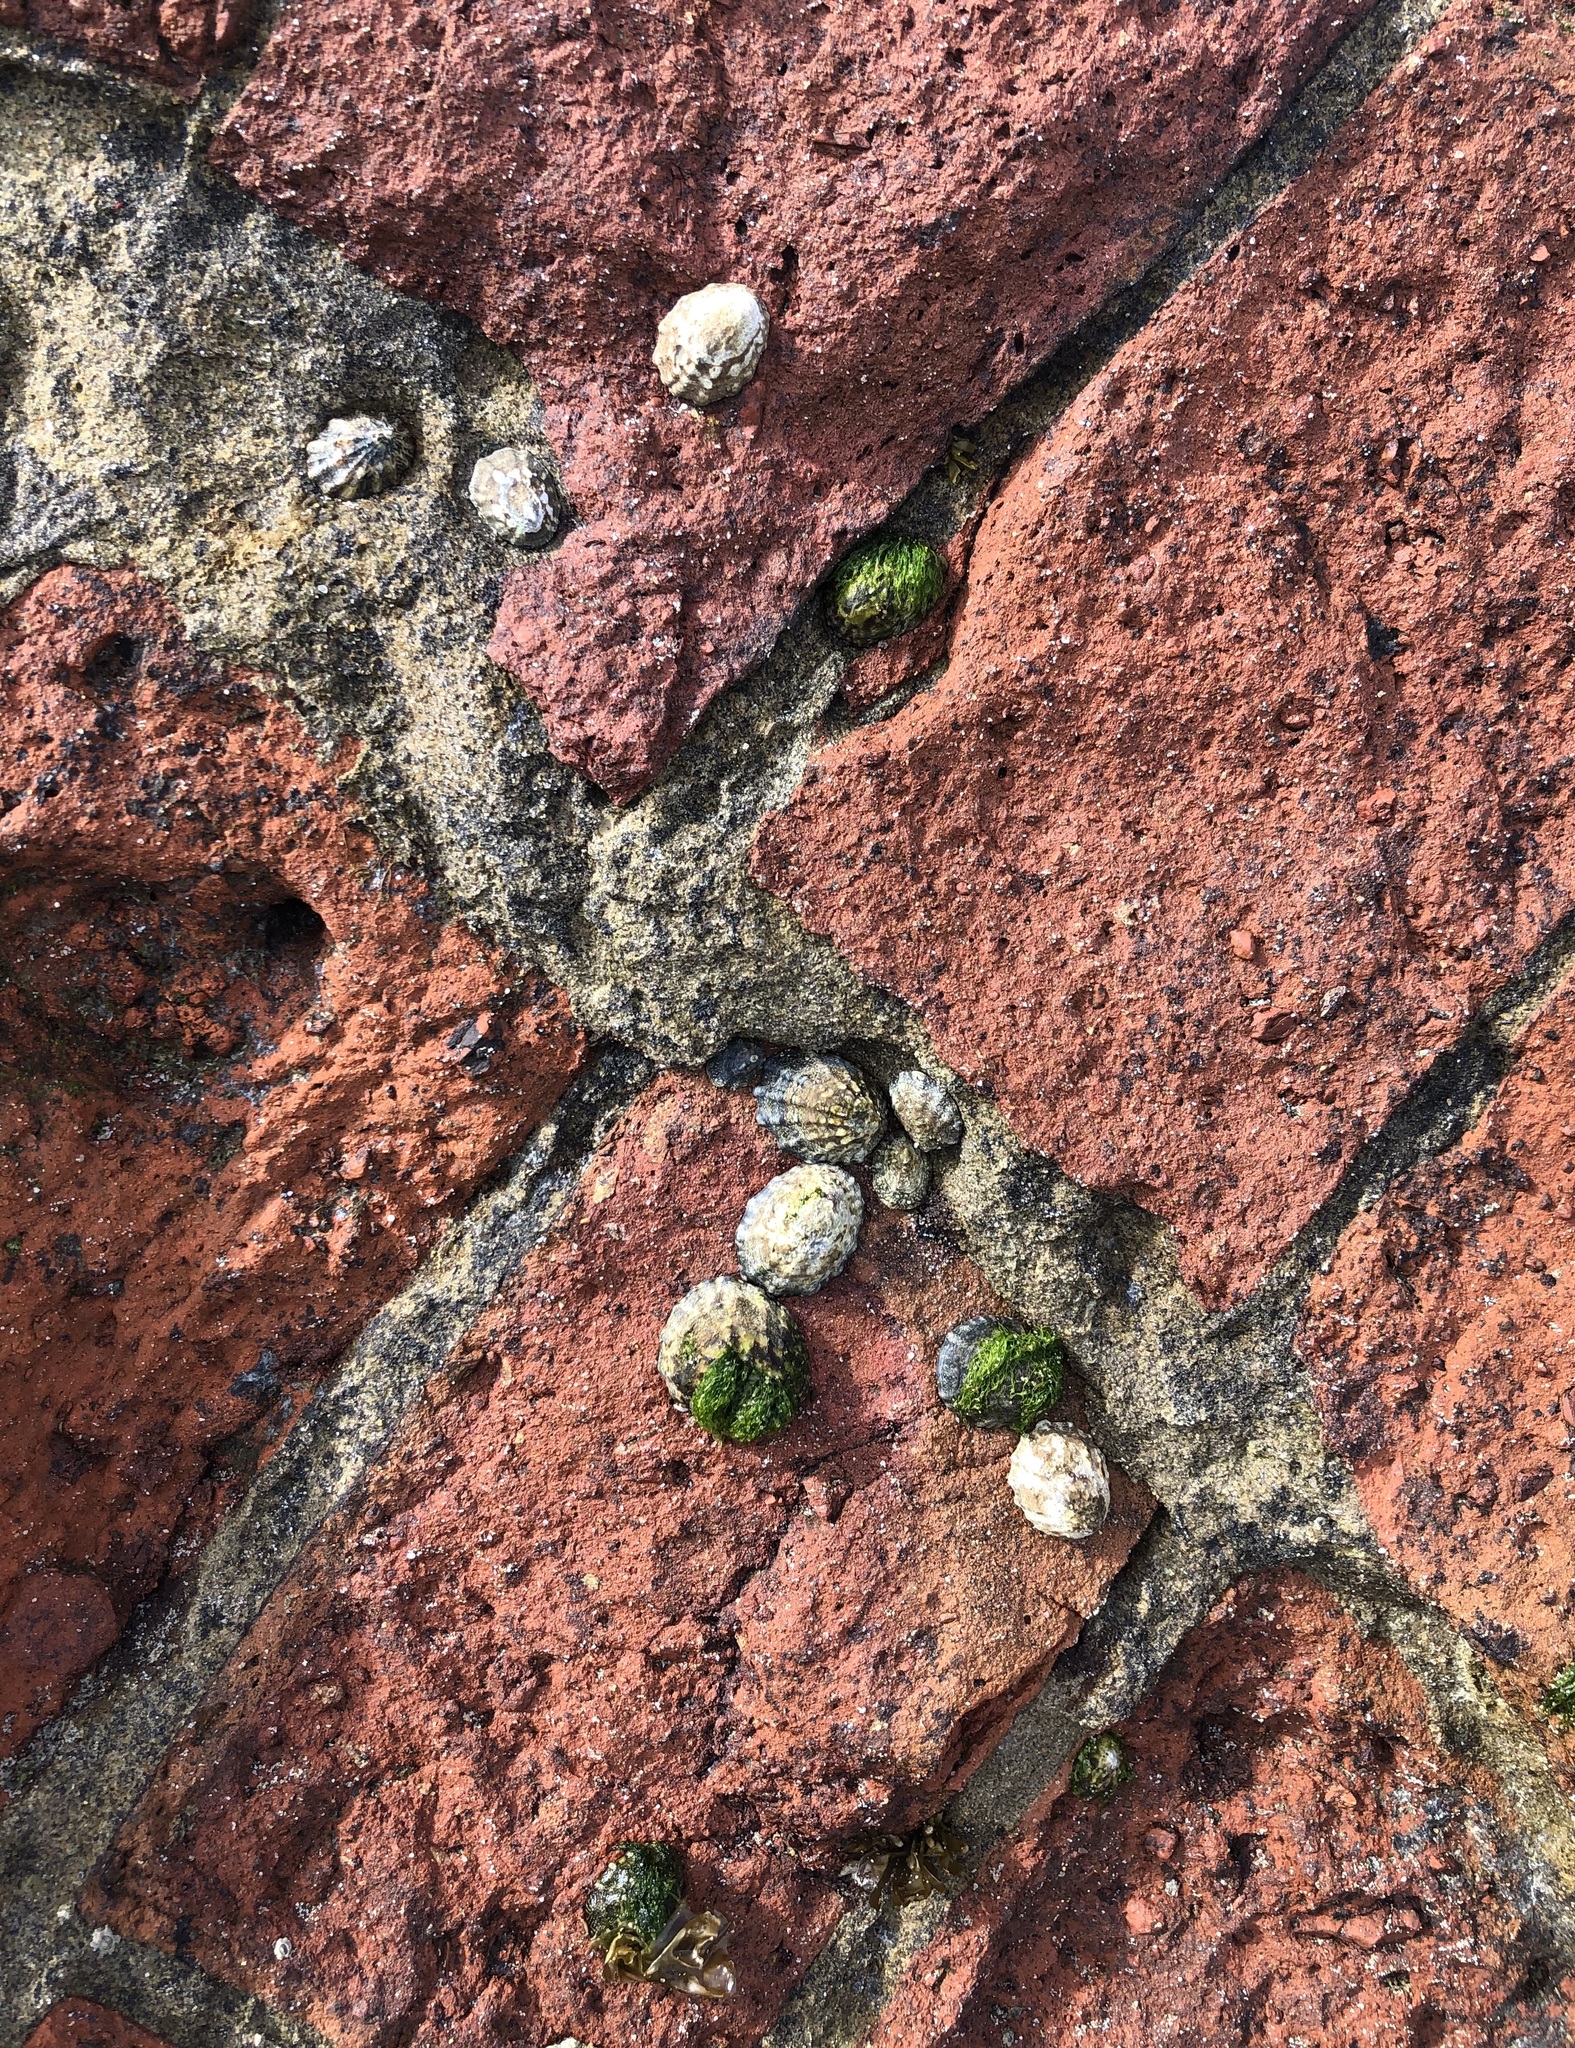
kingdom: Animalia
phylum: Mollusca
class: Gastropoda
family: Lottiidae
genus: Lottia
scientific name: Lottia digitalis
